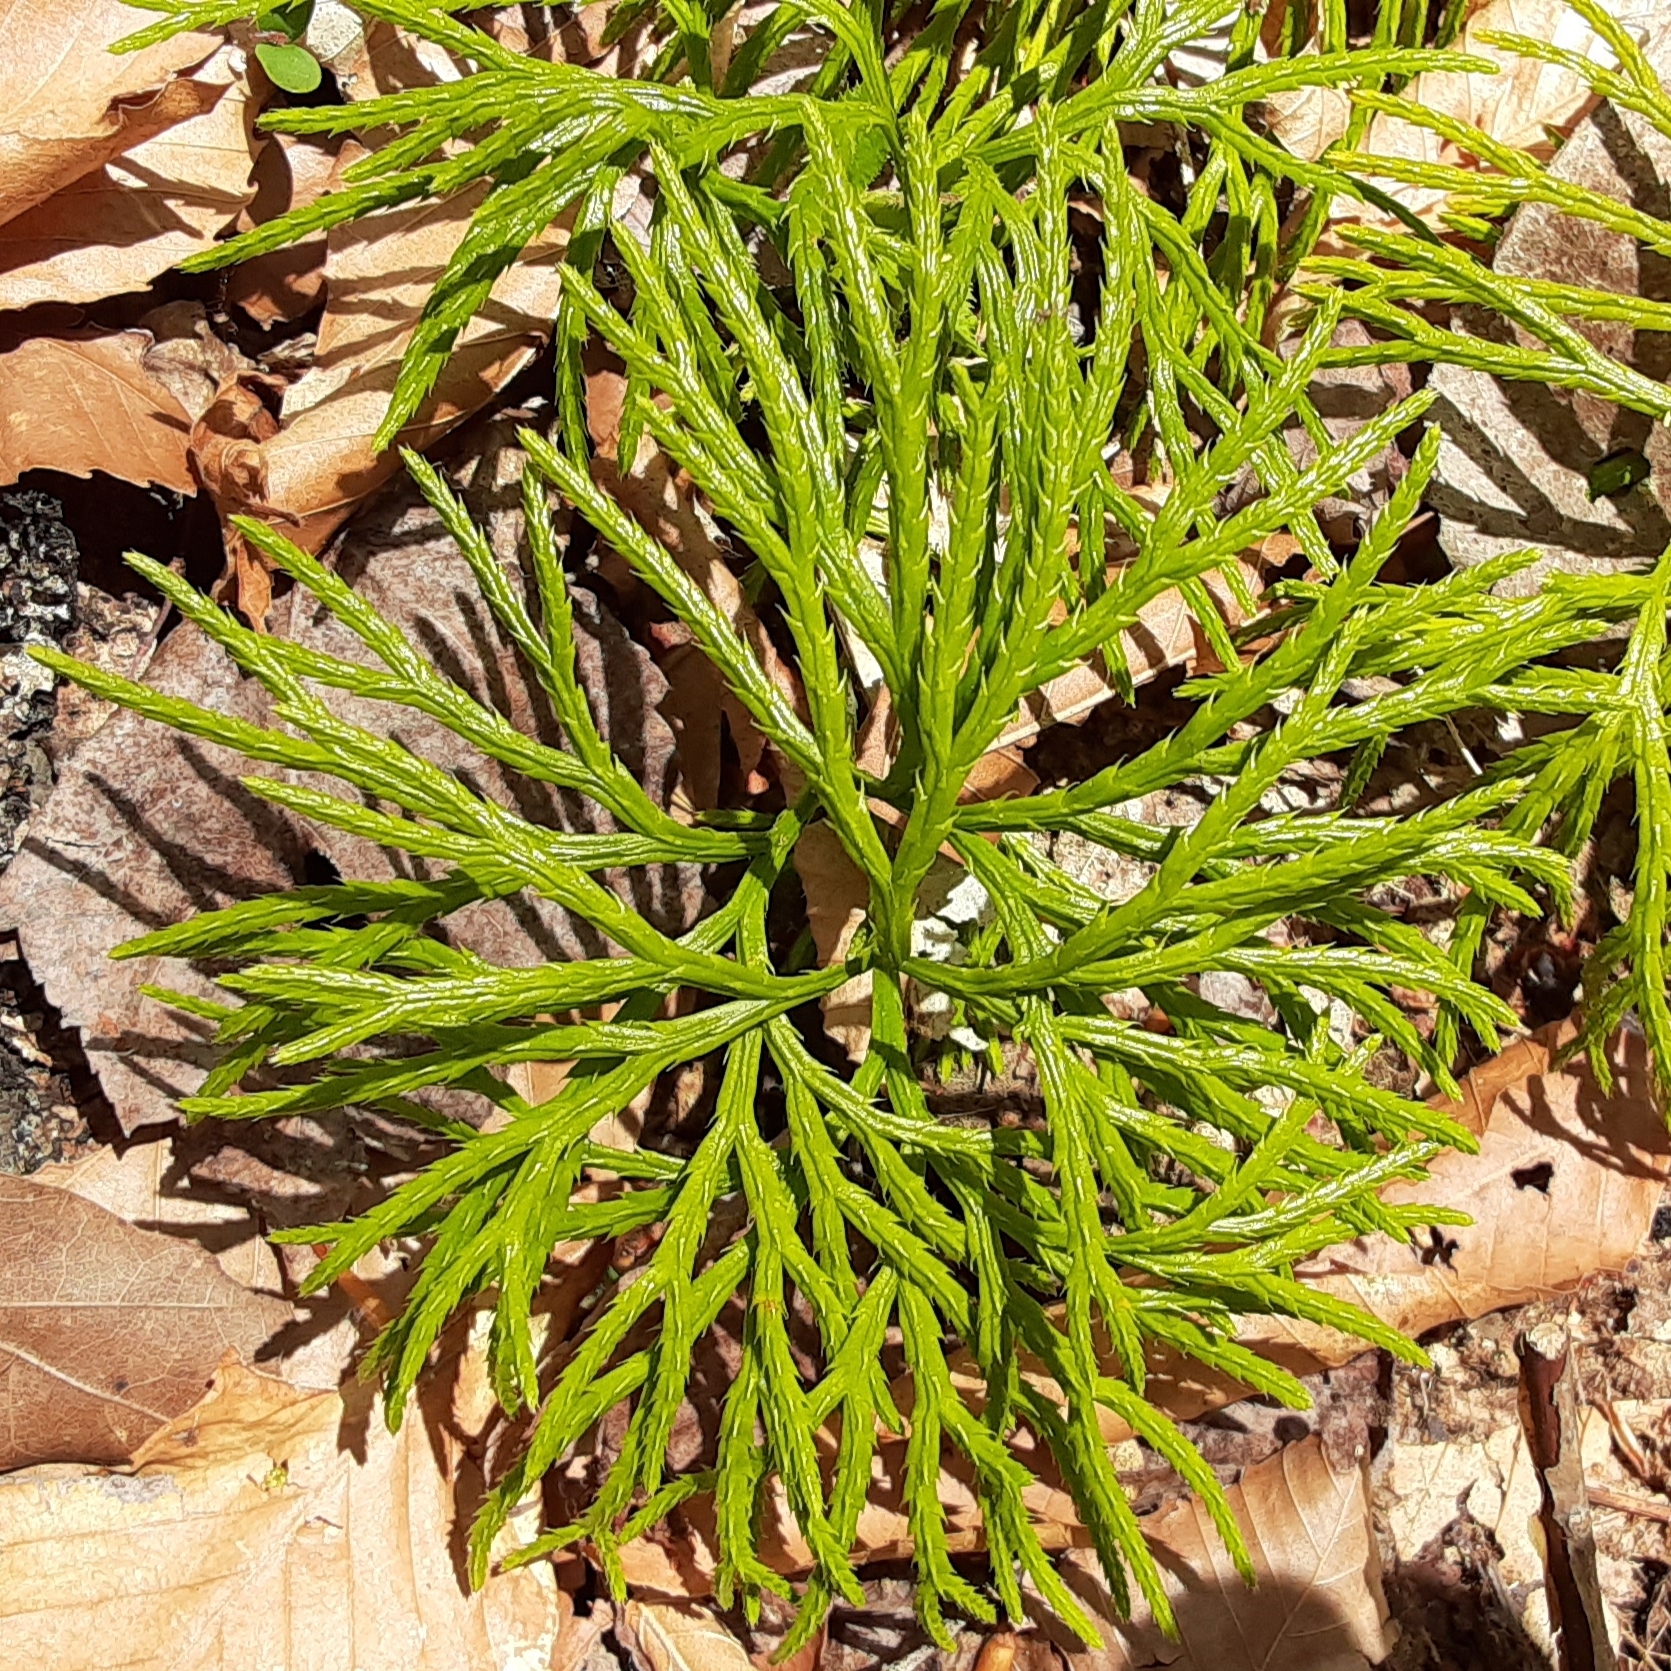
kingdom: Plantae
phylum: Tracheophyta
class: Lycopodiopsida
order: Lycopodiales
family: Lycopodiaceae
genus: Diphasiastrum
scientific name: Diphasiastrum digitatum
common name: Southern running-pine
